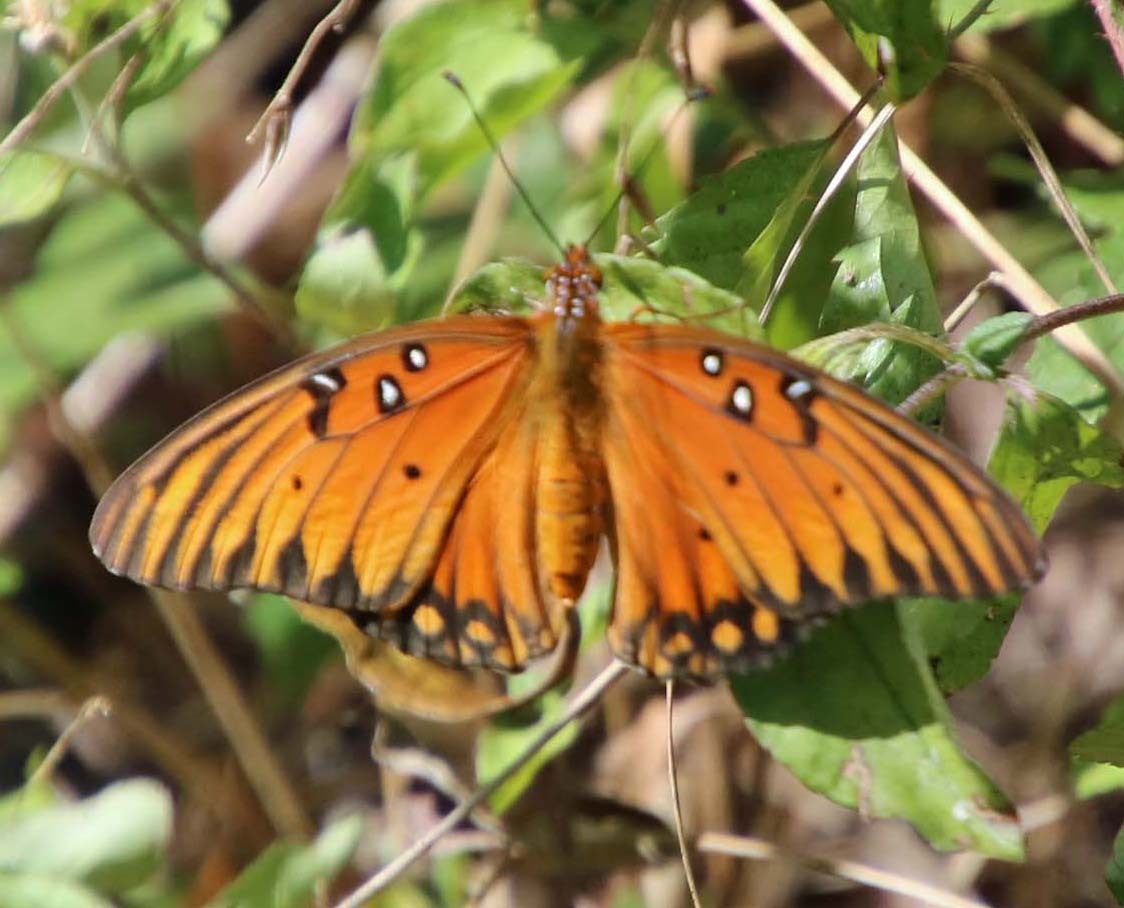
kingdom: Animalia
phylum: Arthropoda
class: Insecta
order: Lepidoptera
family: Nymphalidae
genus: Dione
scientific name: Dione vanillae
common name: Gulf fritillary
